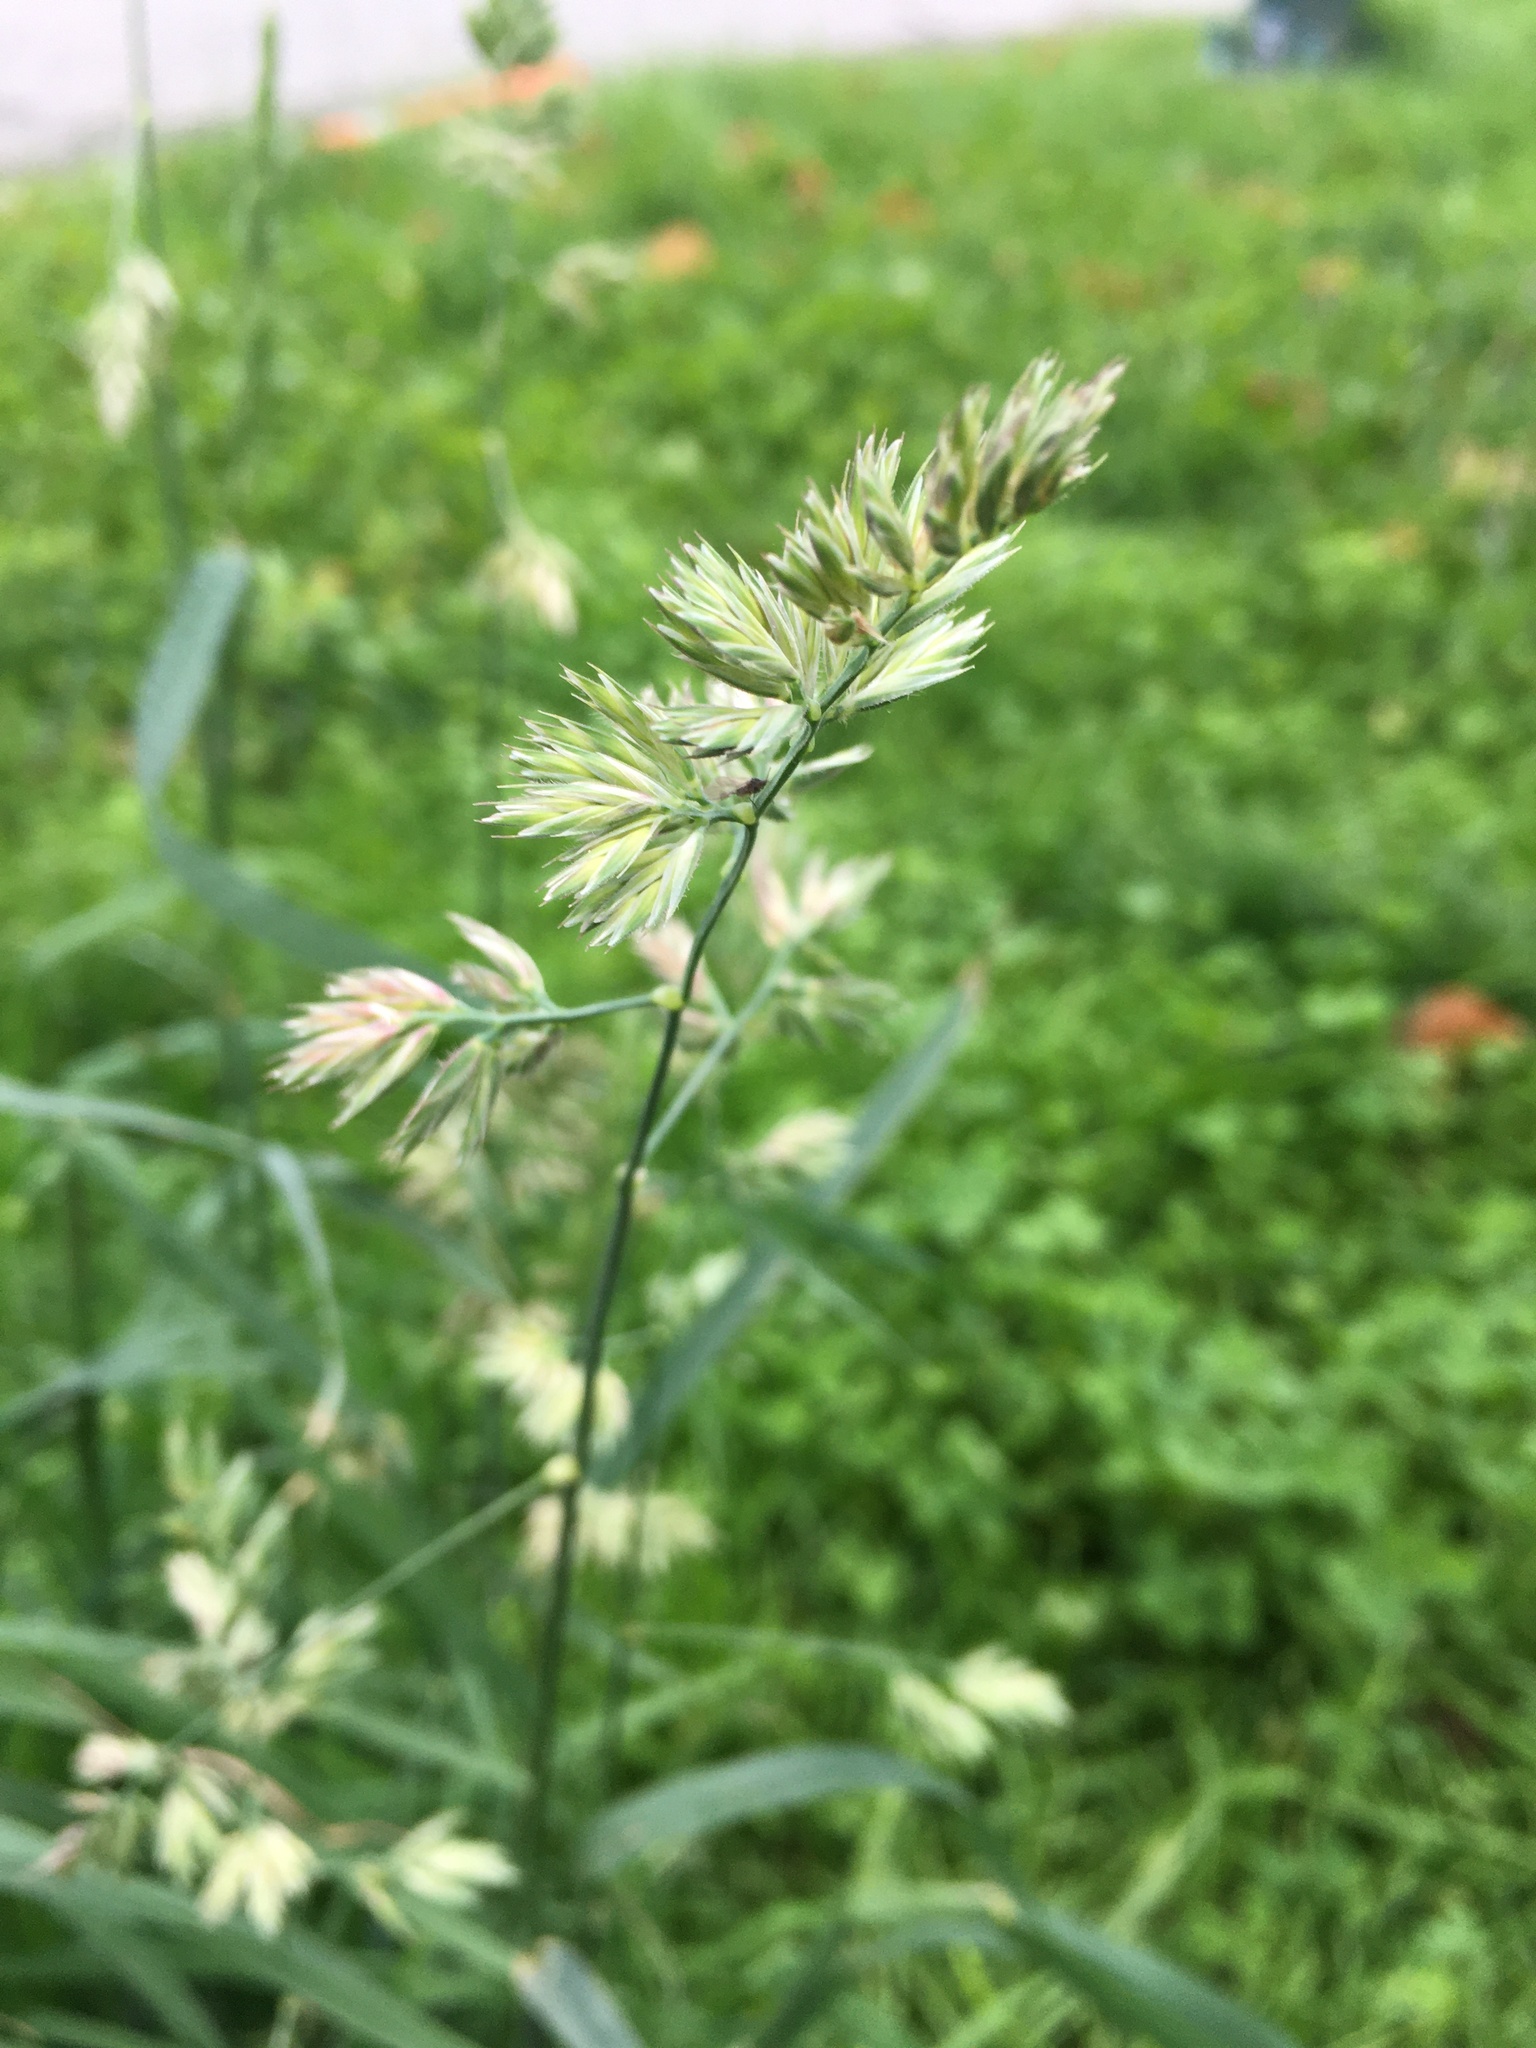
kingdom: Plantae
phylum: Tracheophyta
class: Liliopsida
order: Poales
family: Poaceae
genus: Dactylis
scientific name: Dactylis glomerata
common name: Orchardgrass
